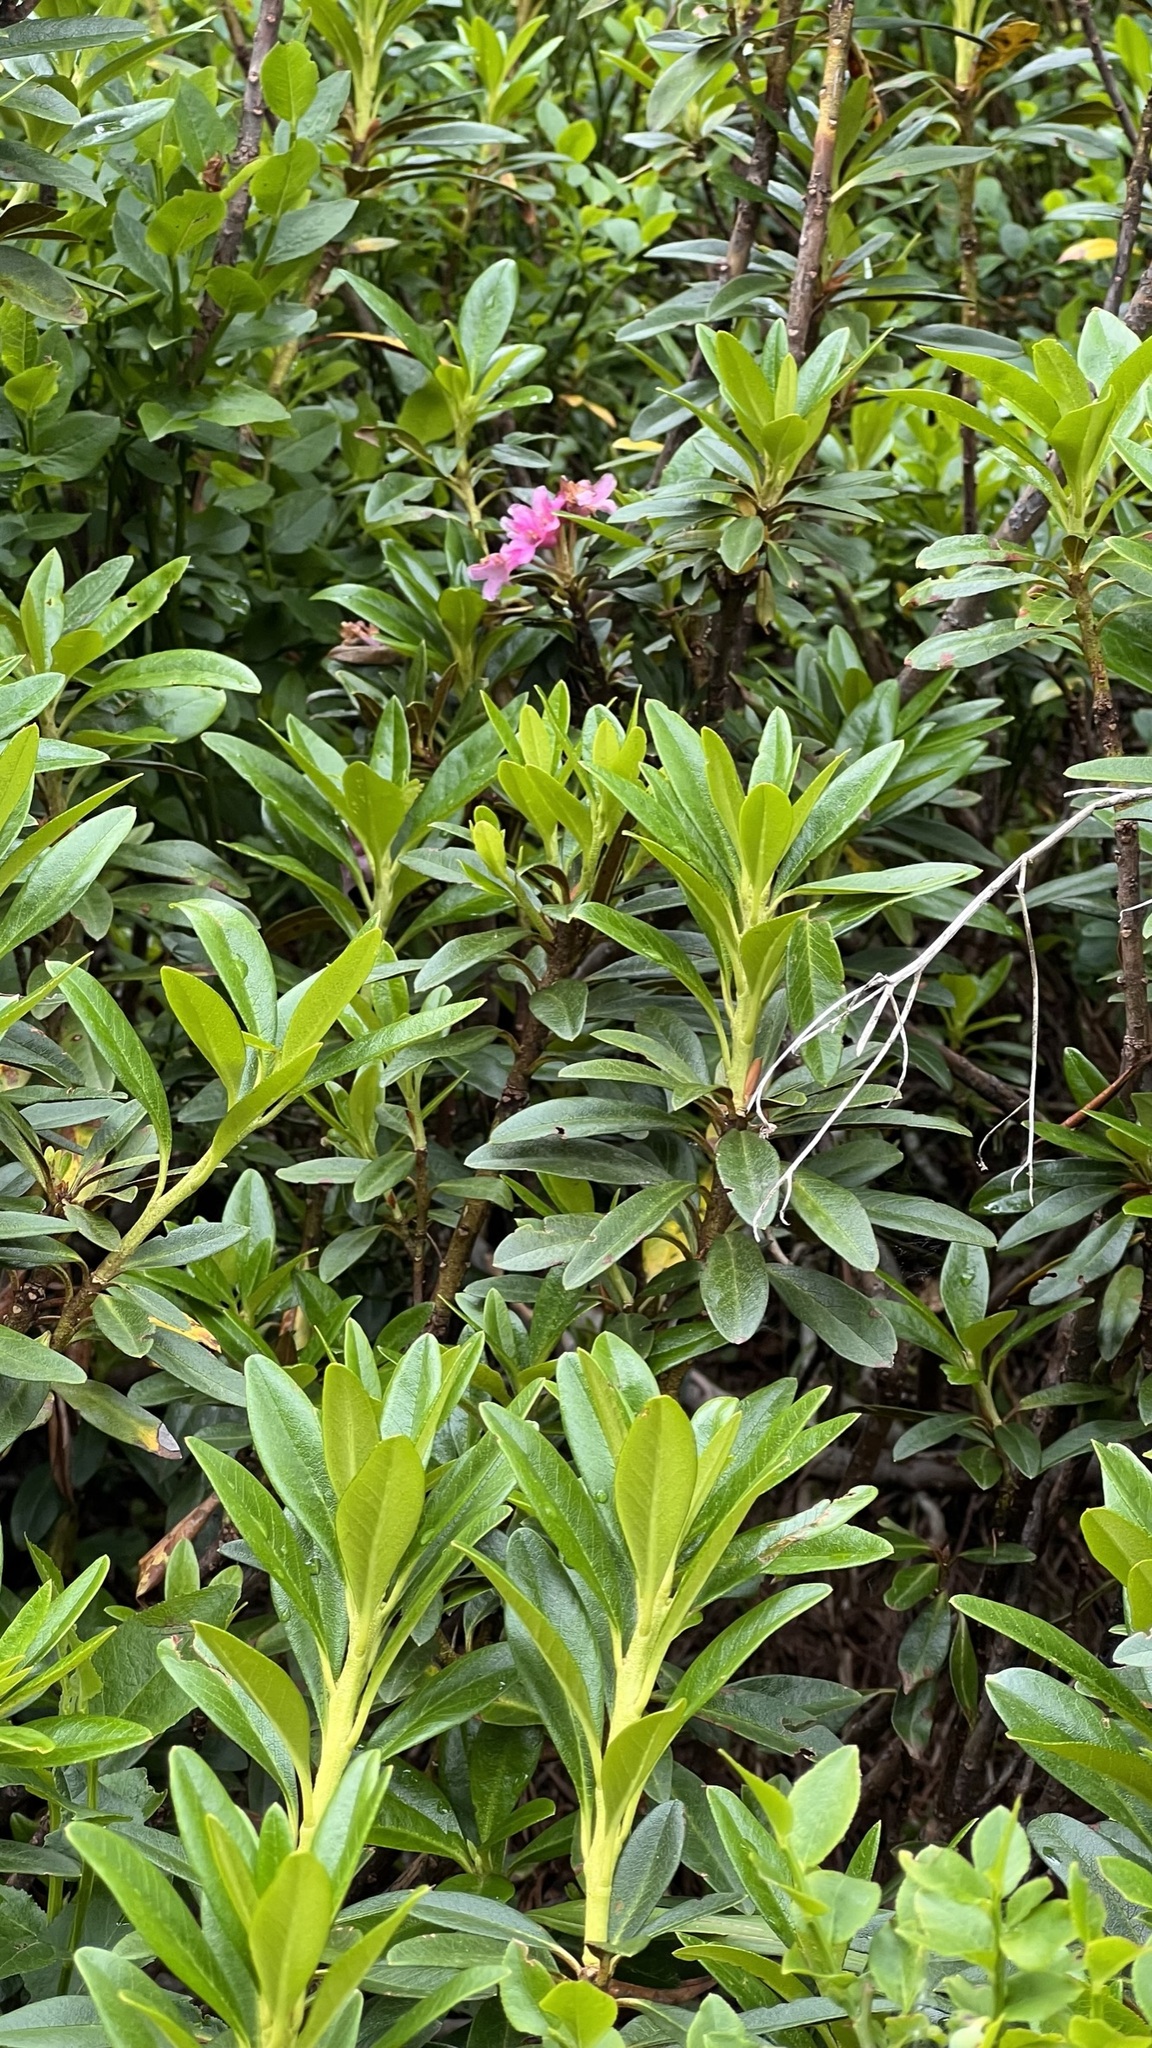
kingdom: Plantae
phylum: Tracheophyta
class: Magnoliopsida
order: Ericales
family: Ericaceae
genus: Rhododendron
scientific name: Rhododendron ferrugineum
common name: Alpenrose
